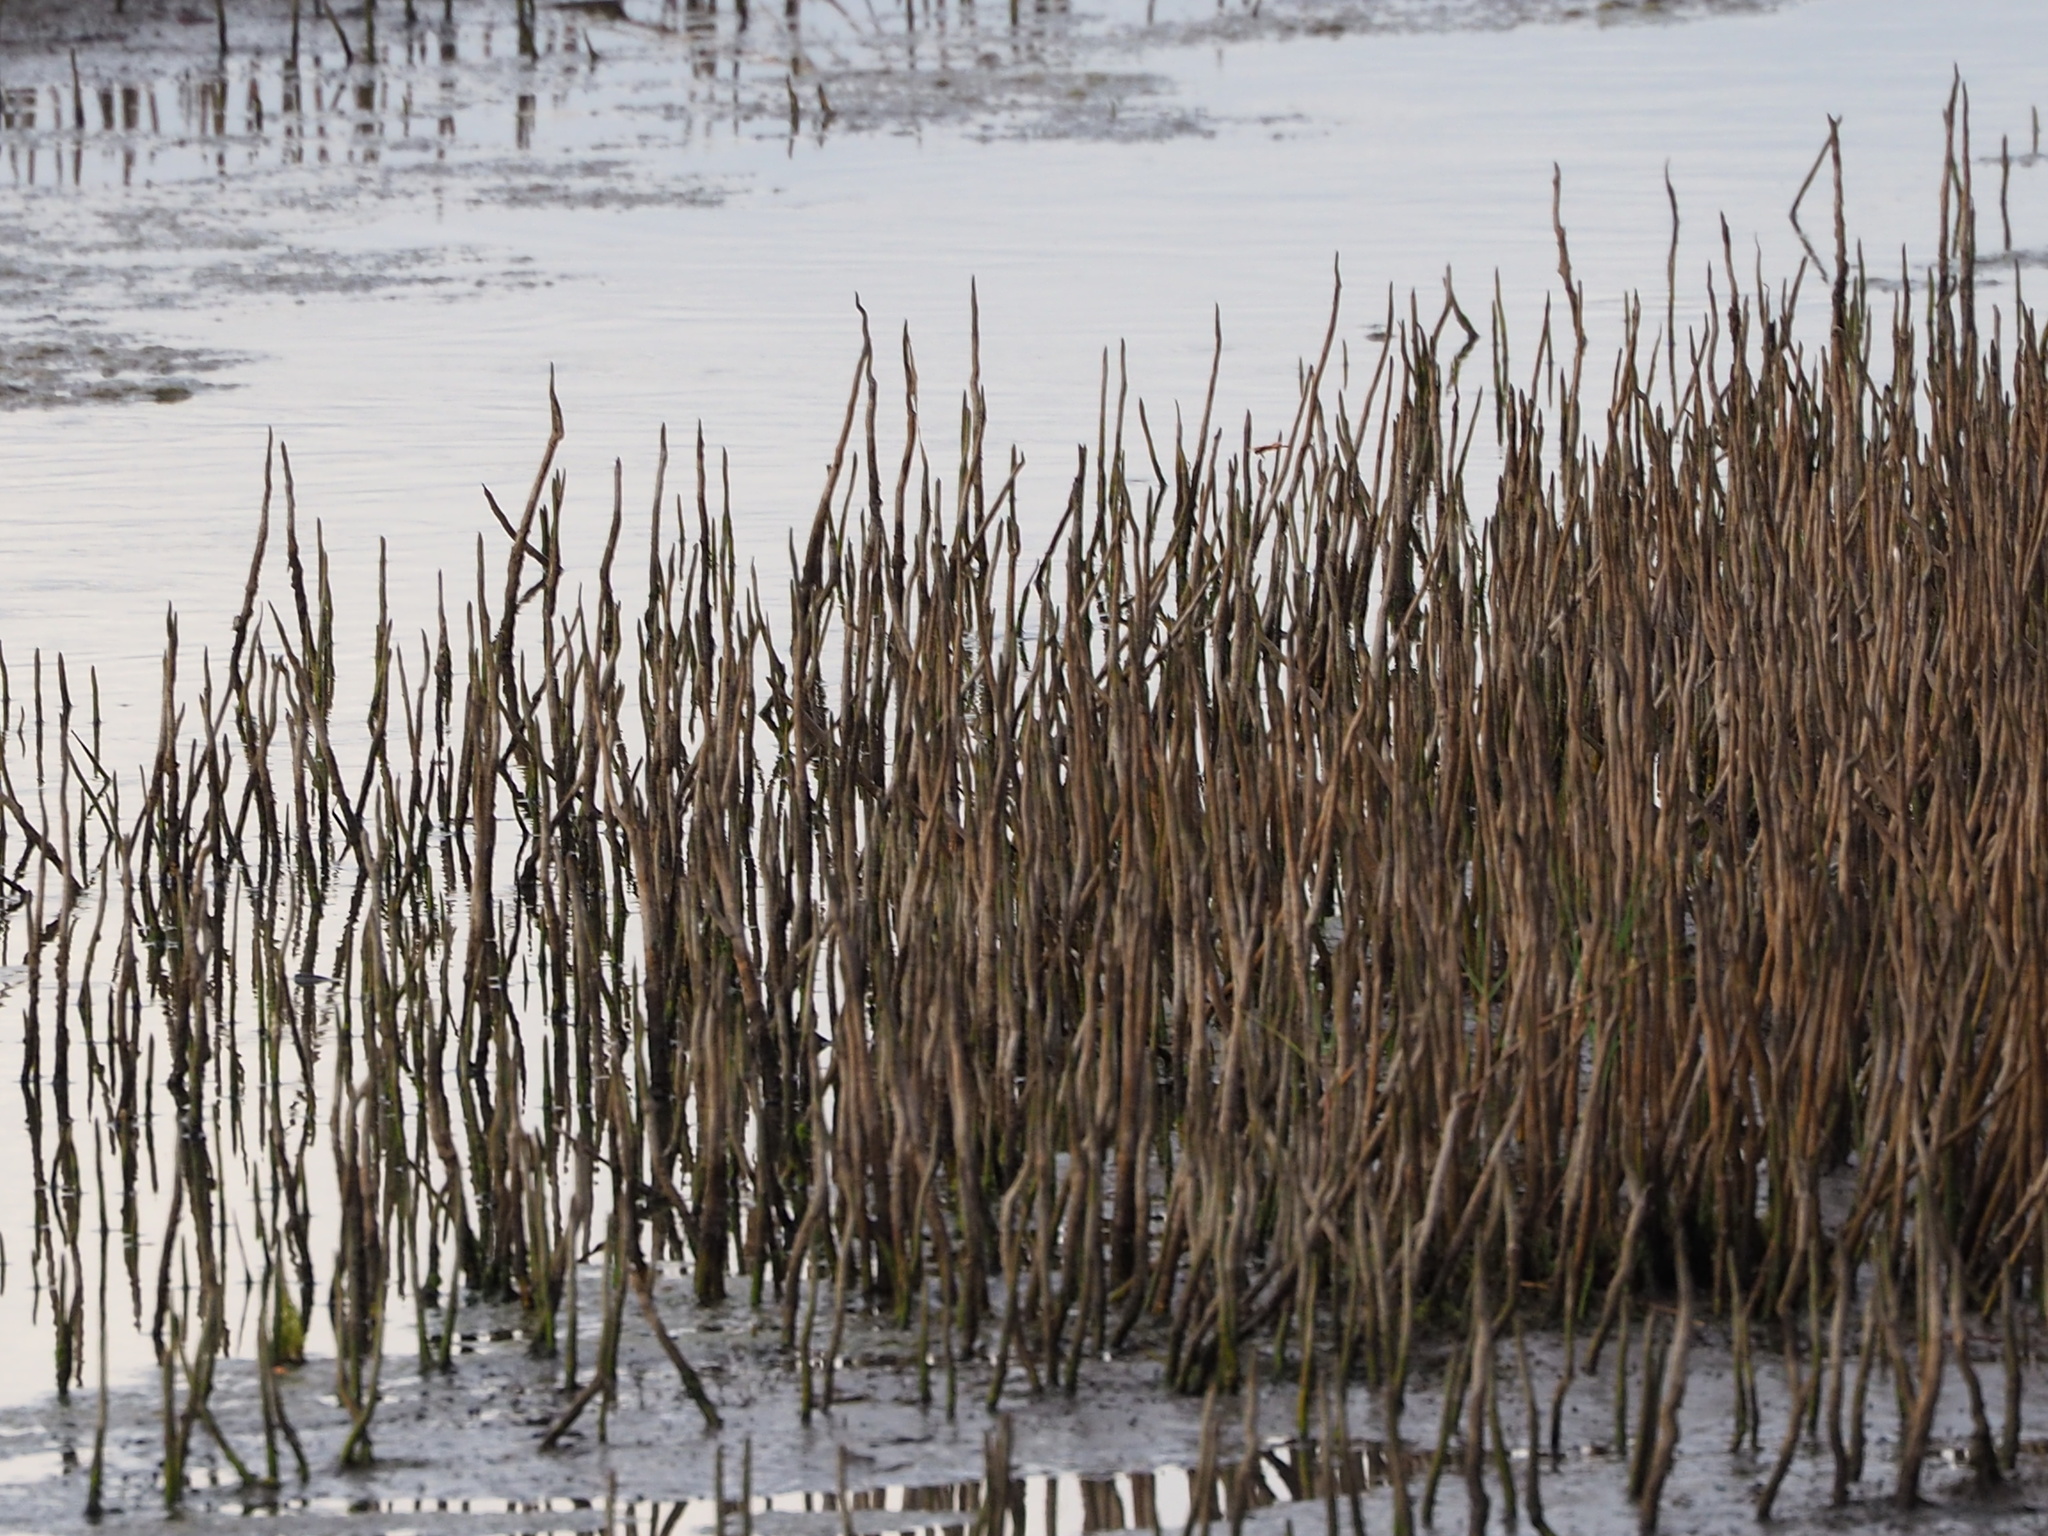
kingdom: Plantae
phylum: Tracheophyta
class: Magnoliopsida
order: Lamiales
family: Acanthaceae
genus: Avicennia
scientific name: Avicennia marina
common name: Gray mangrove
